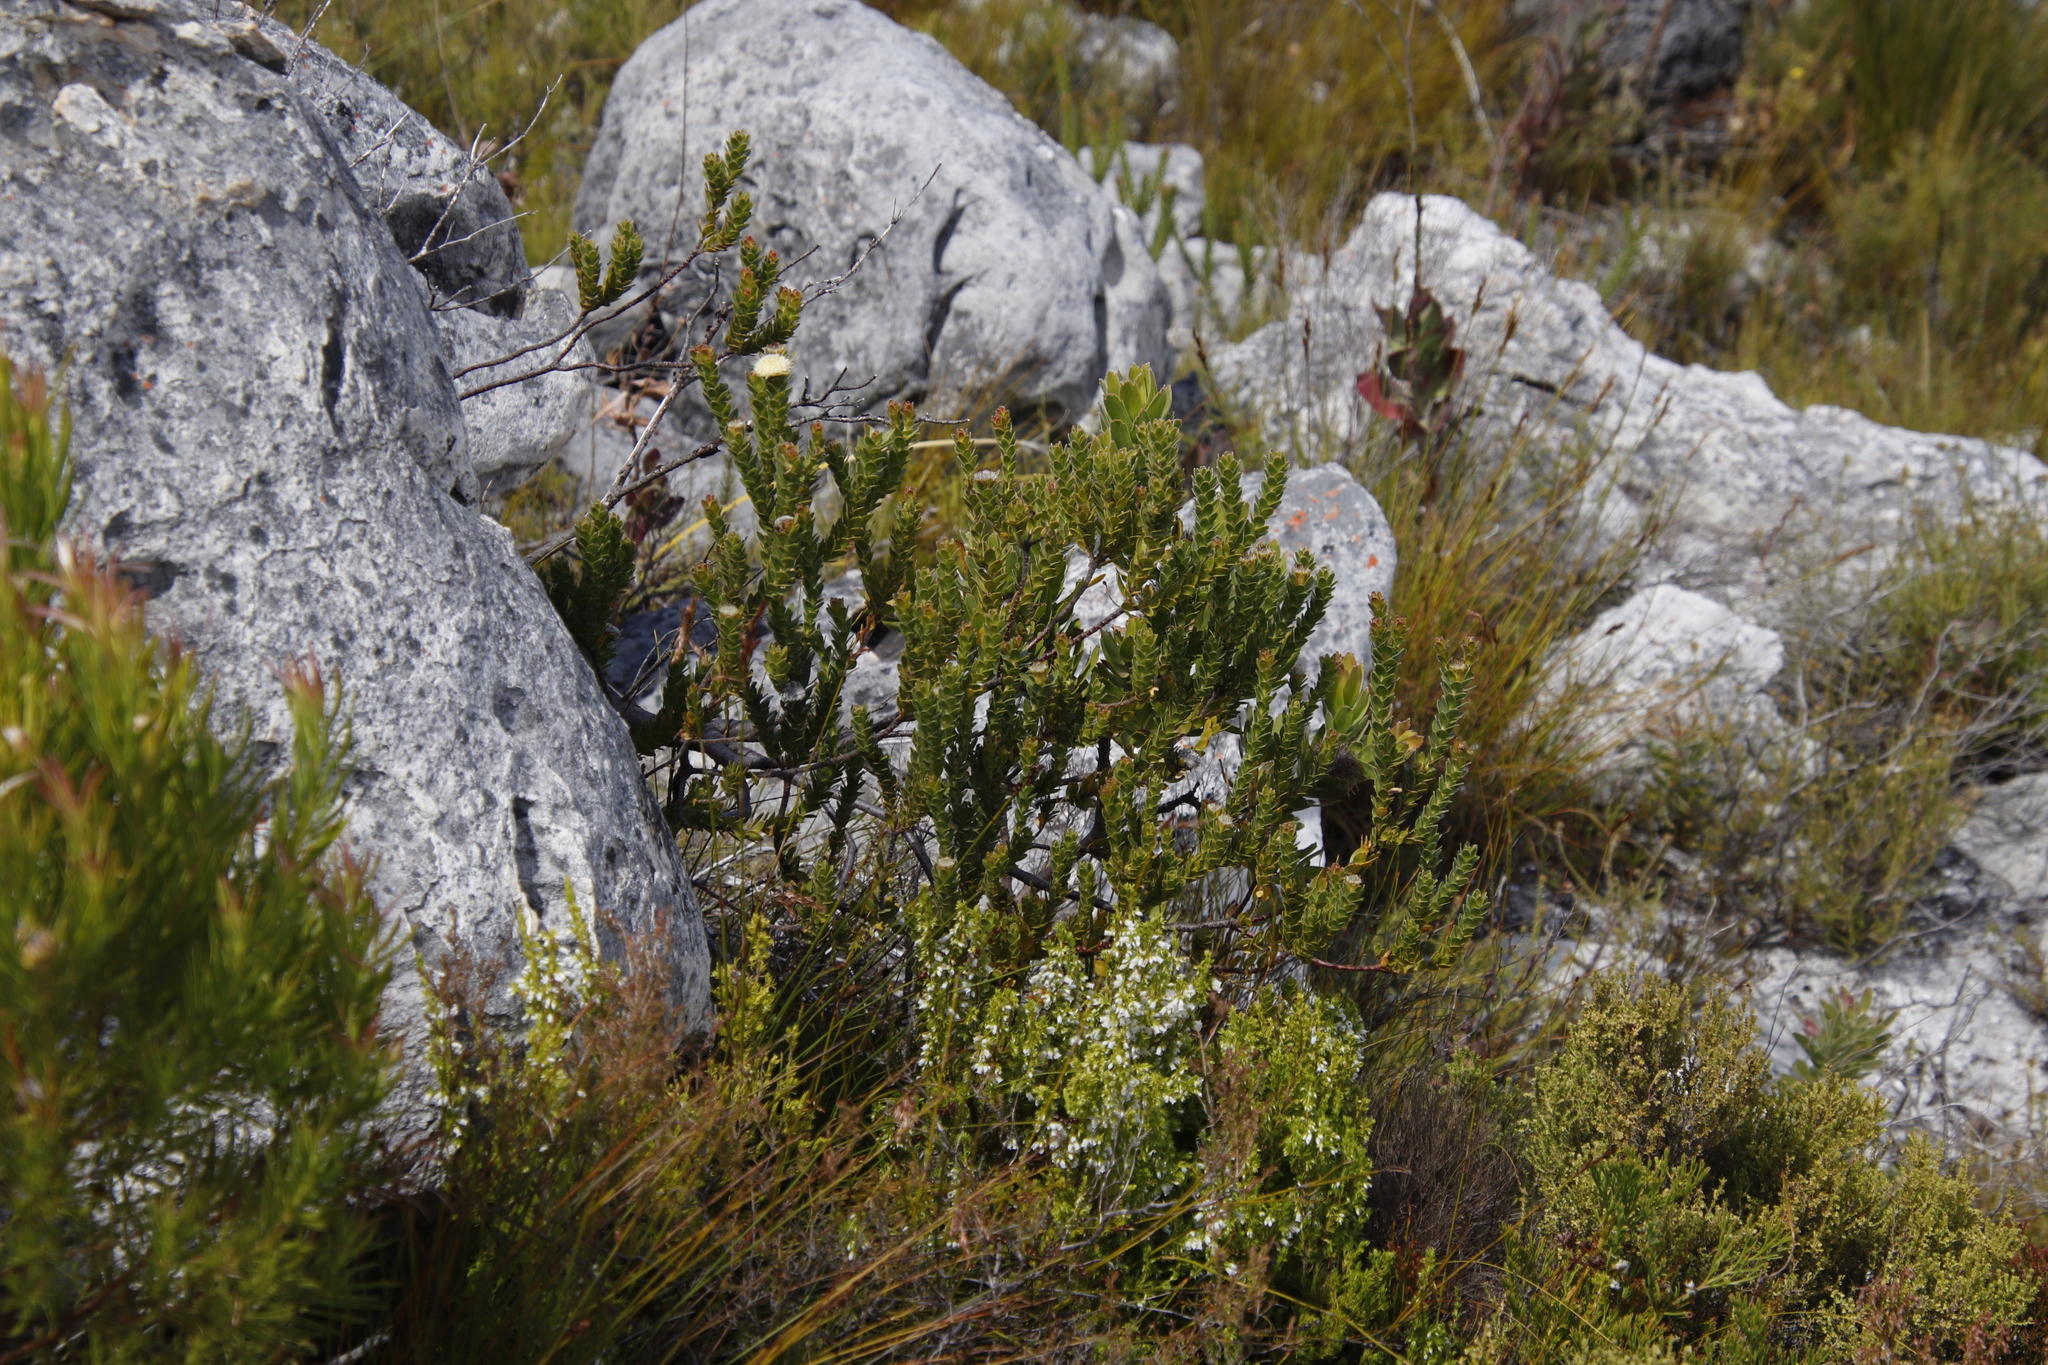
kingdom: Plantae
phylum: Tracheophyta
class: Magnoliopsida
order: Proteales
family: Proteaceae
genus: Diastella
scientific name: Diastella thymelaeoides
